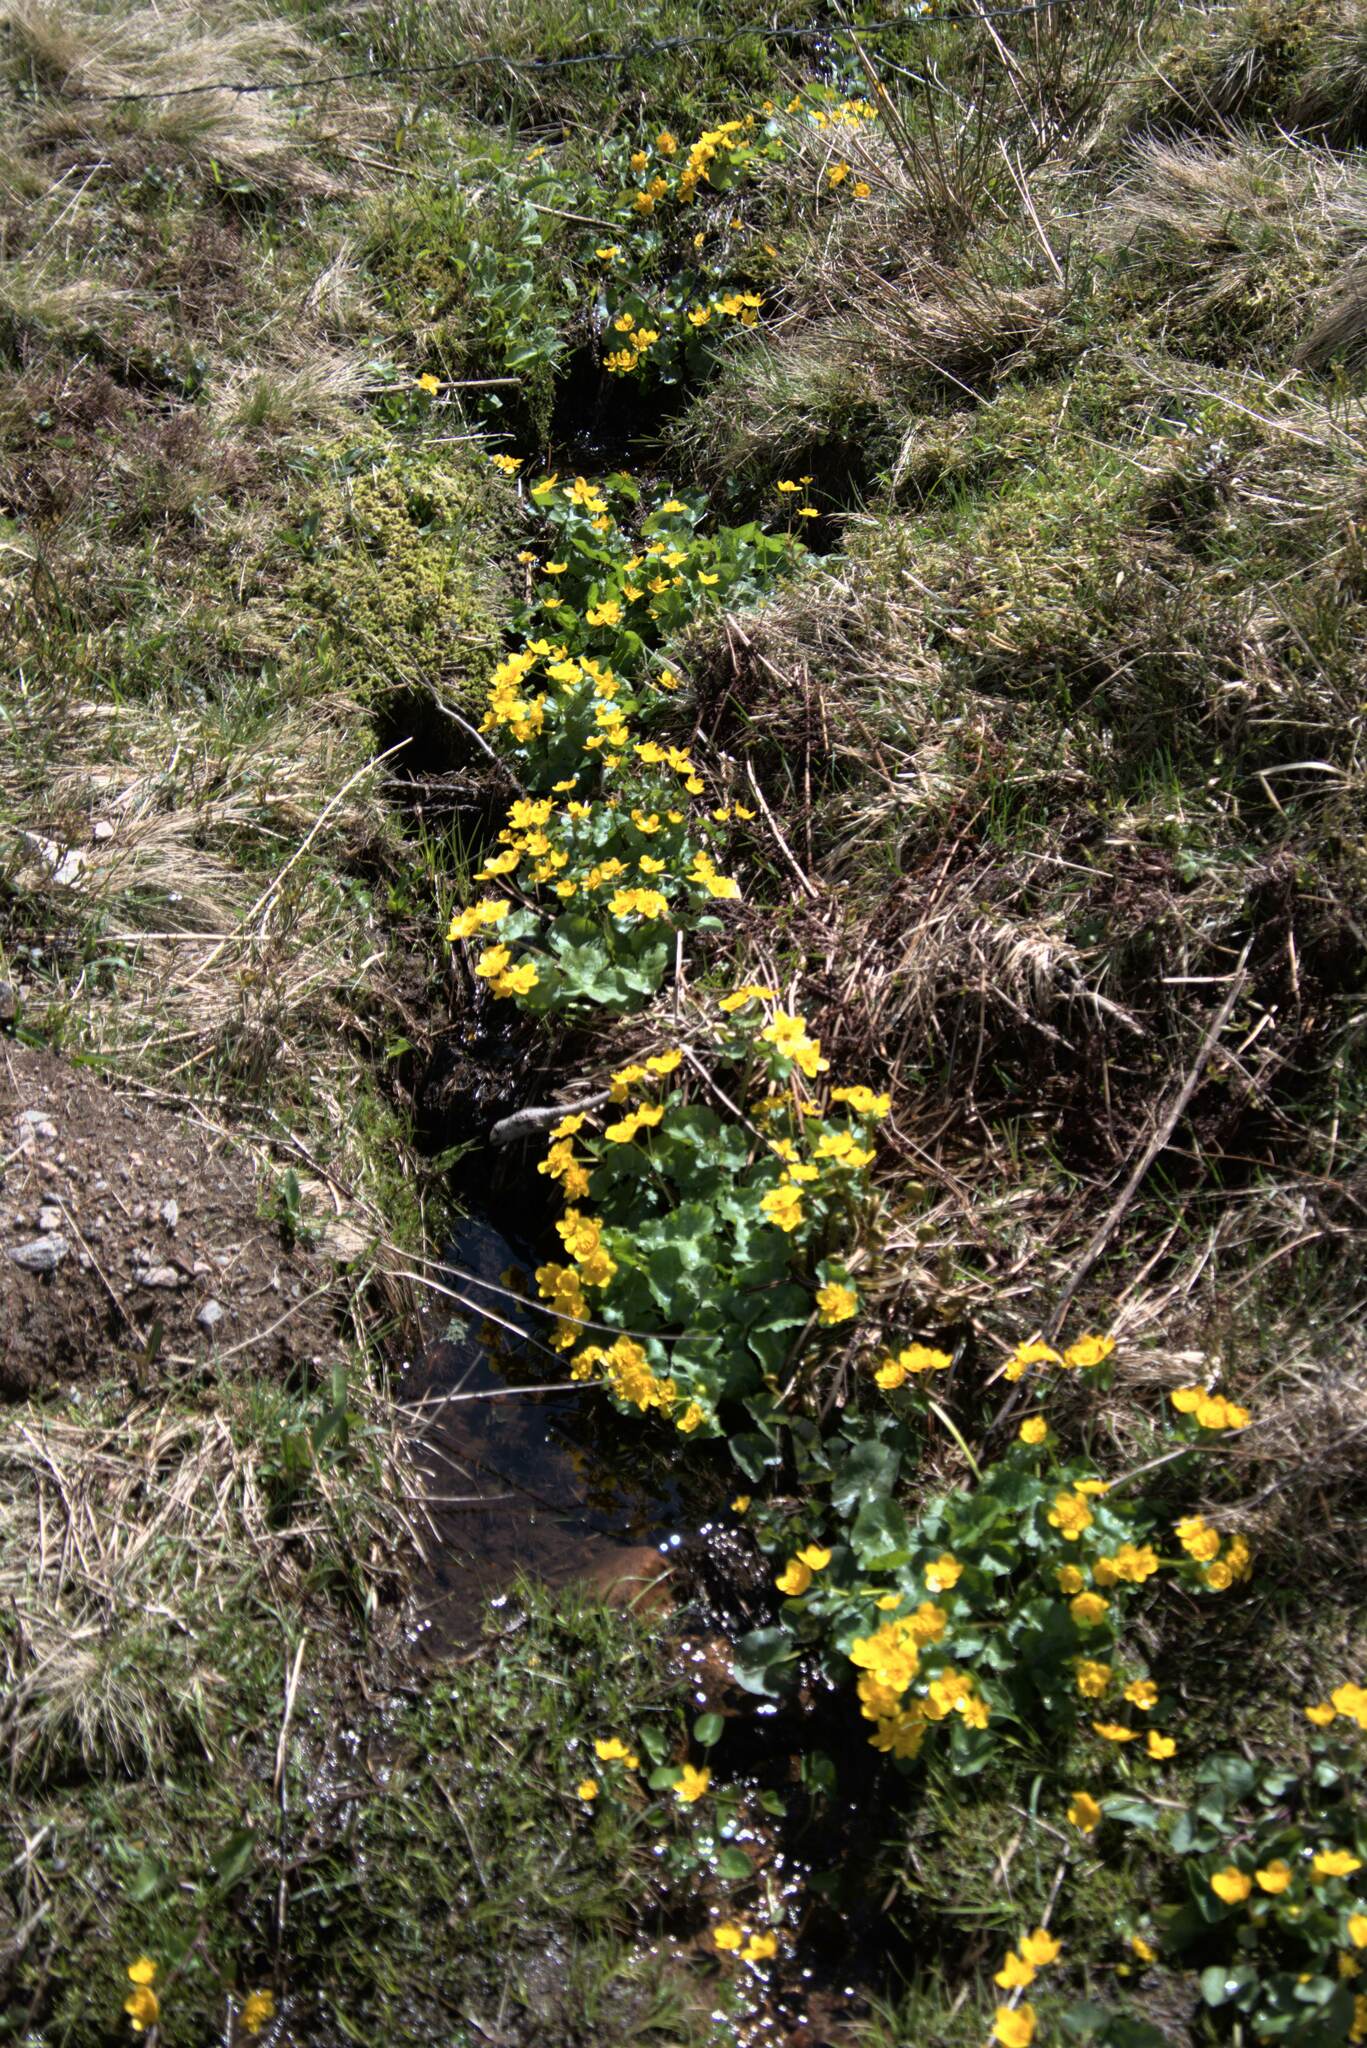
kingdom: Plantae
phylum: Tracheophyta
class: Magnoliopsida
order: Ranunculales
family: Ranunculaceae
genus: Caltha
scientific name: Caltha palustris
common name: Marsh marigold
